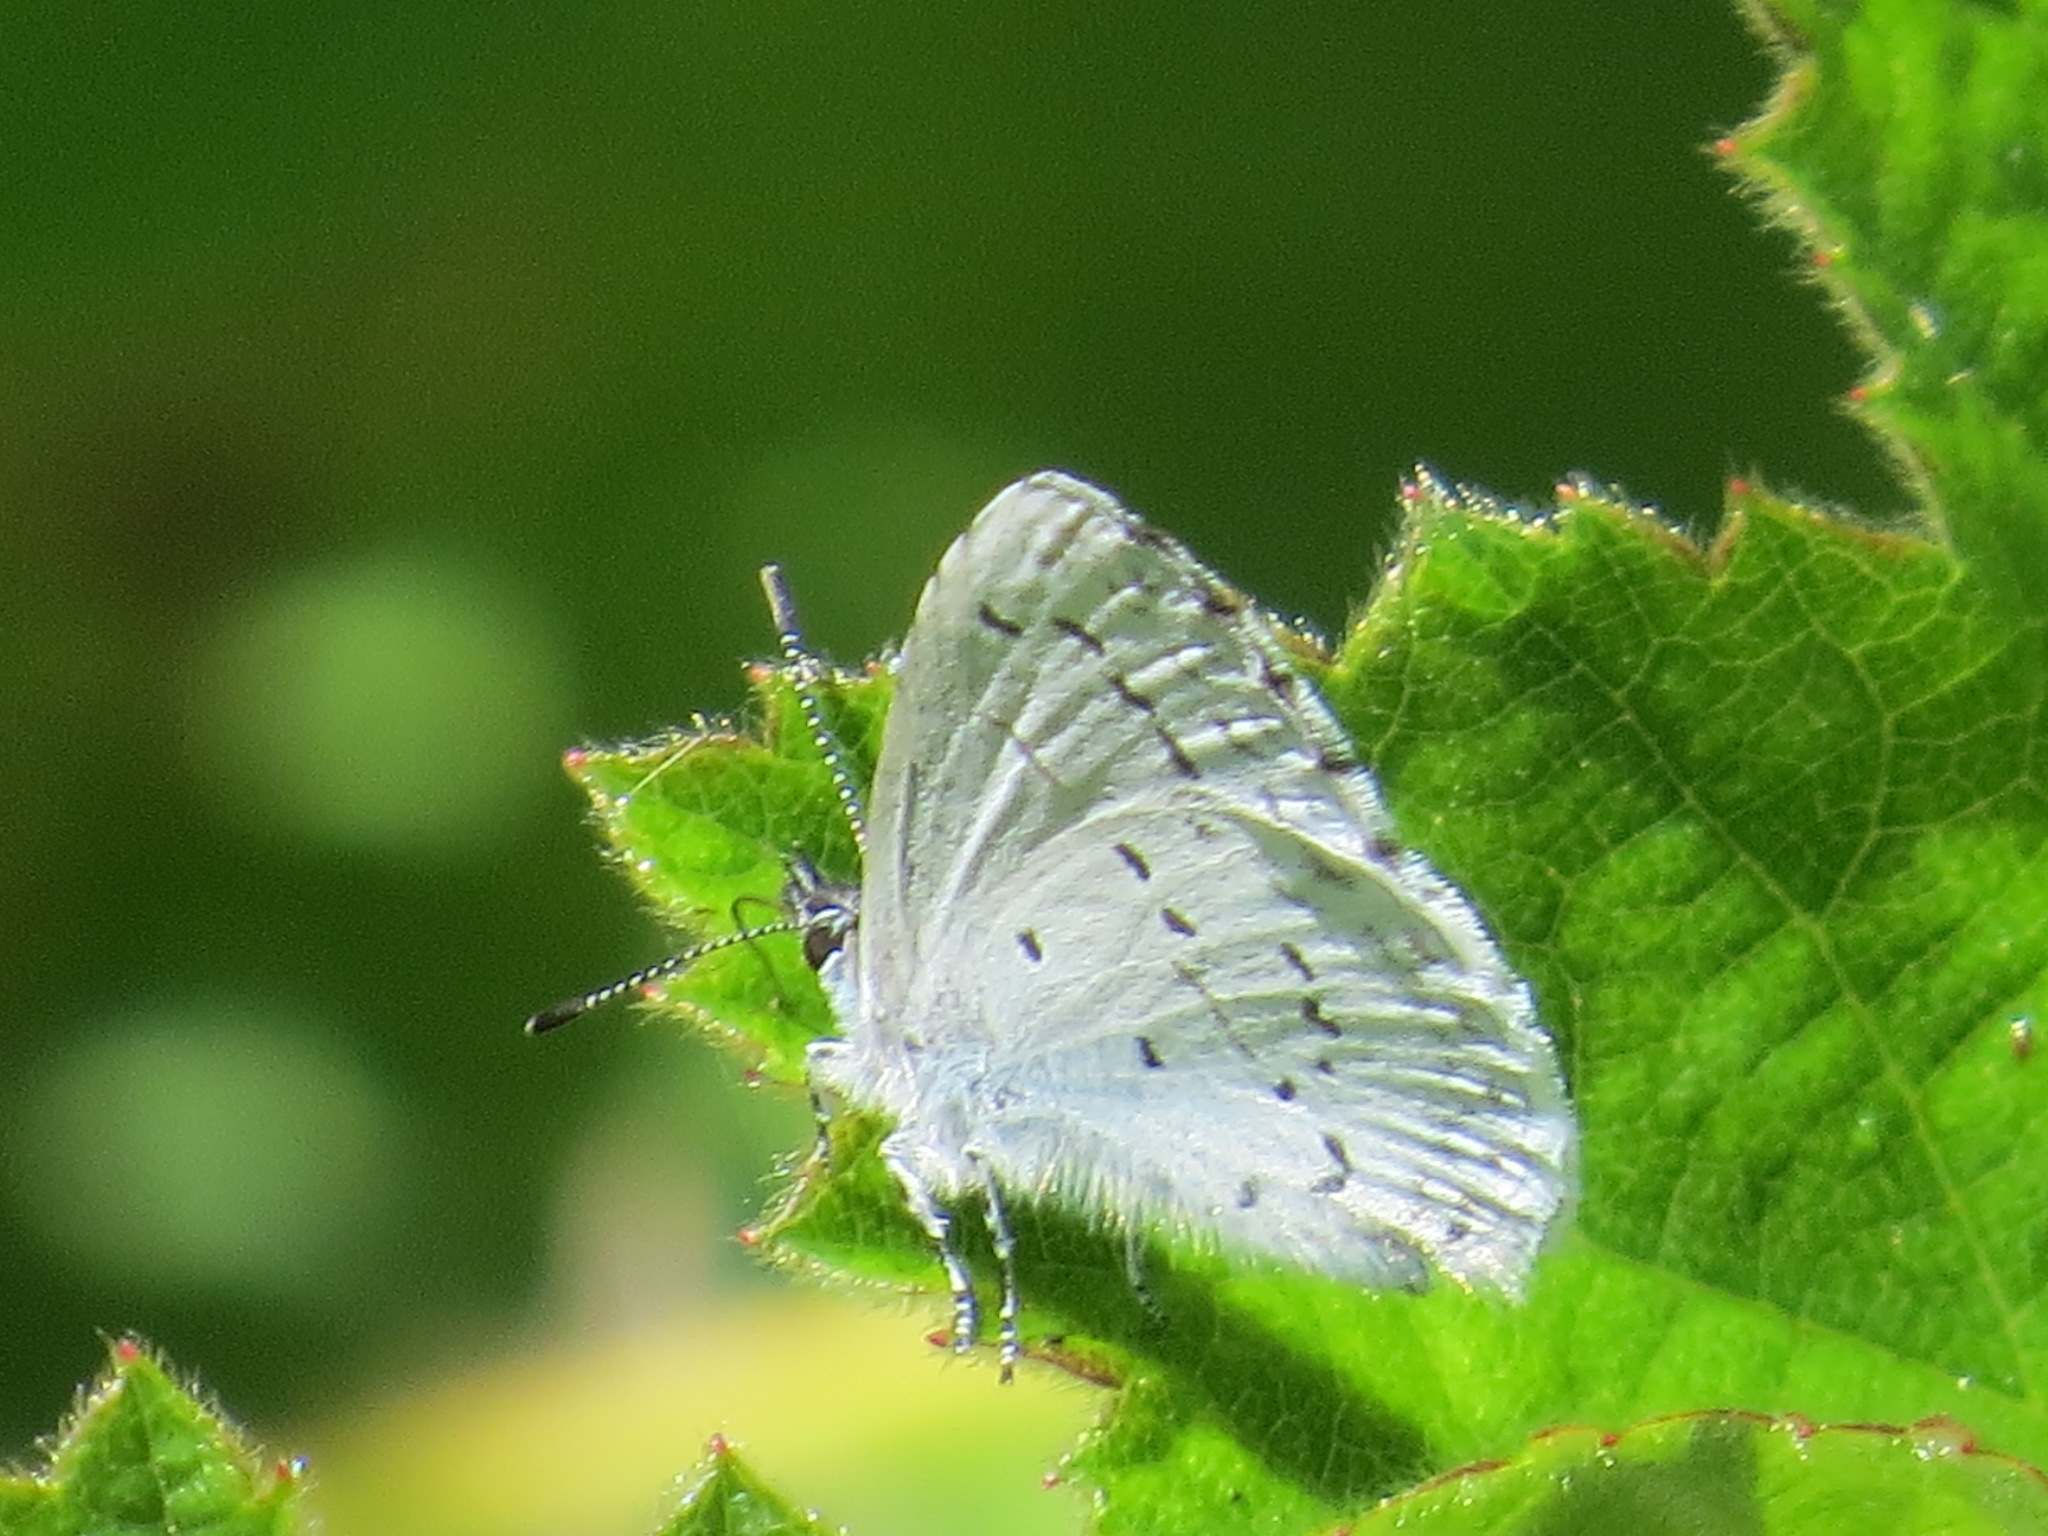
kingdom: Animalia
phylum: Arthropoda
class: Insecta
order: Lepidoptera
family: Lycaenidae
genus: Celastrina
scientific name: Celastrina ladon
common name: Spring azure
